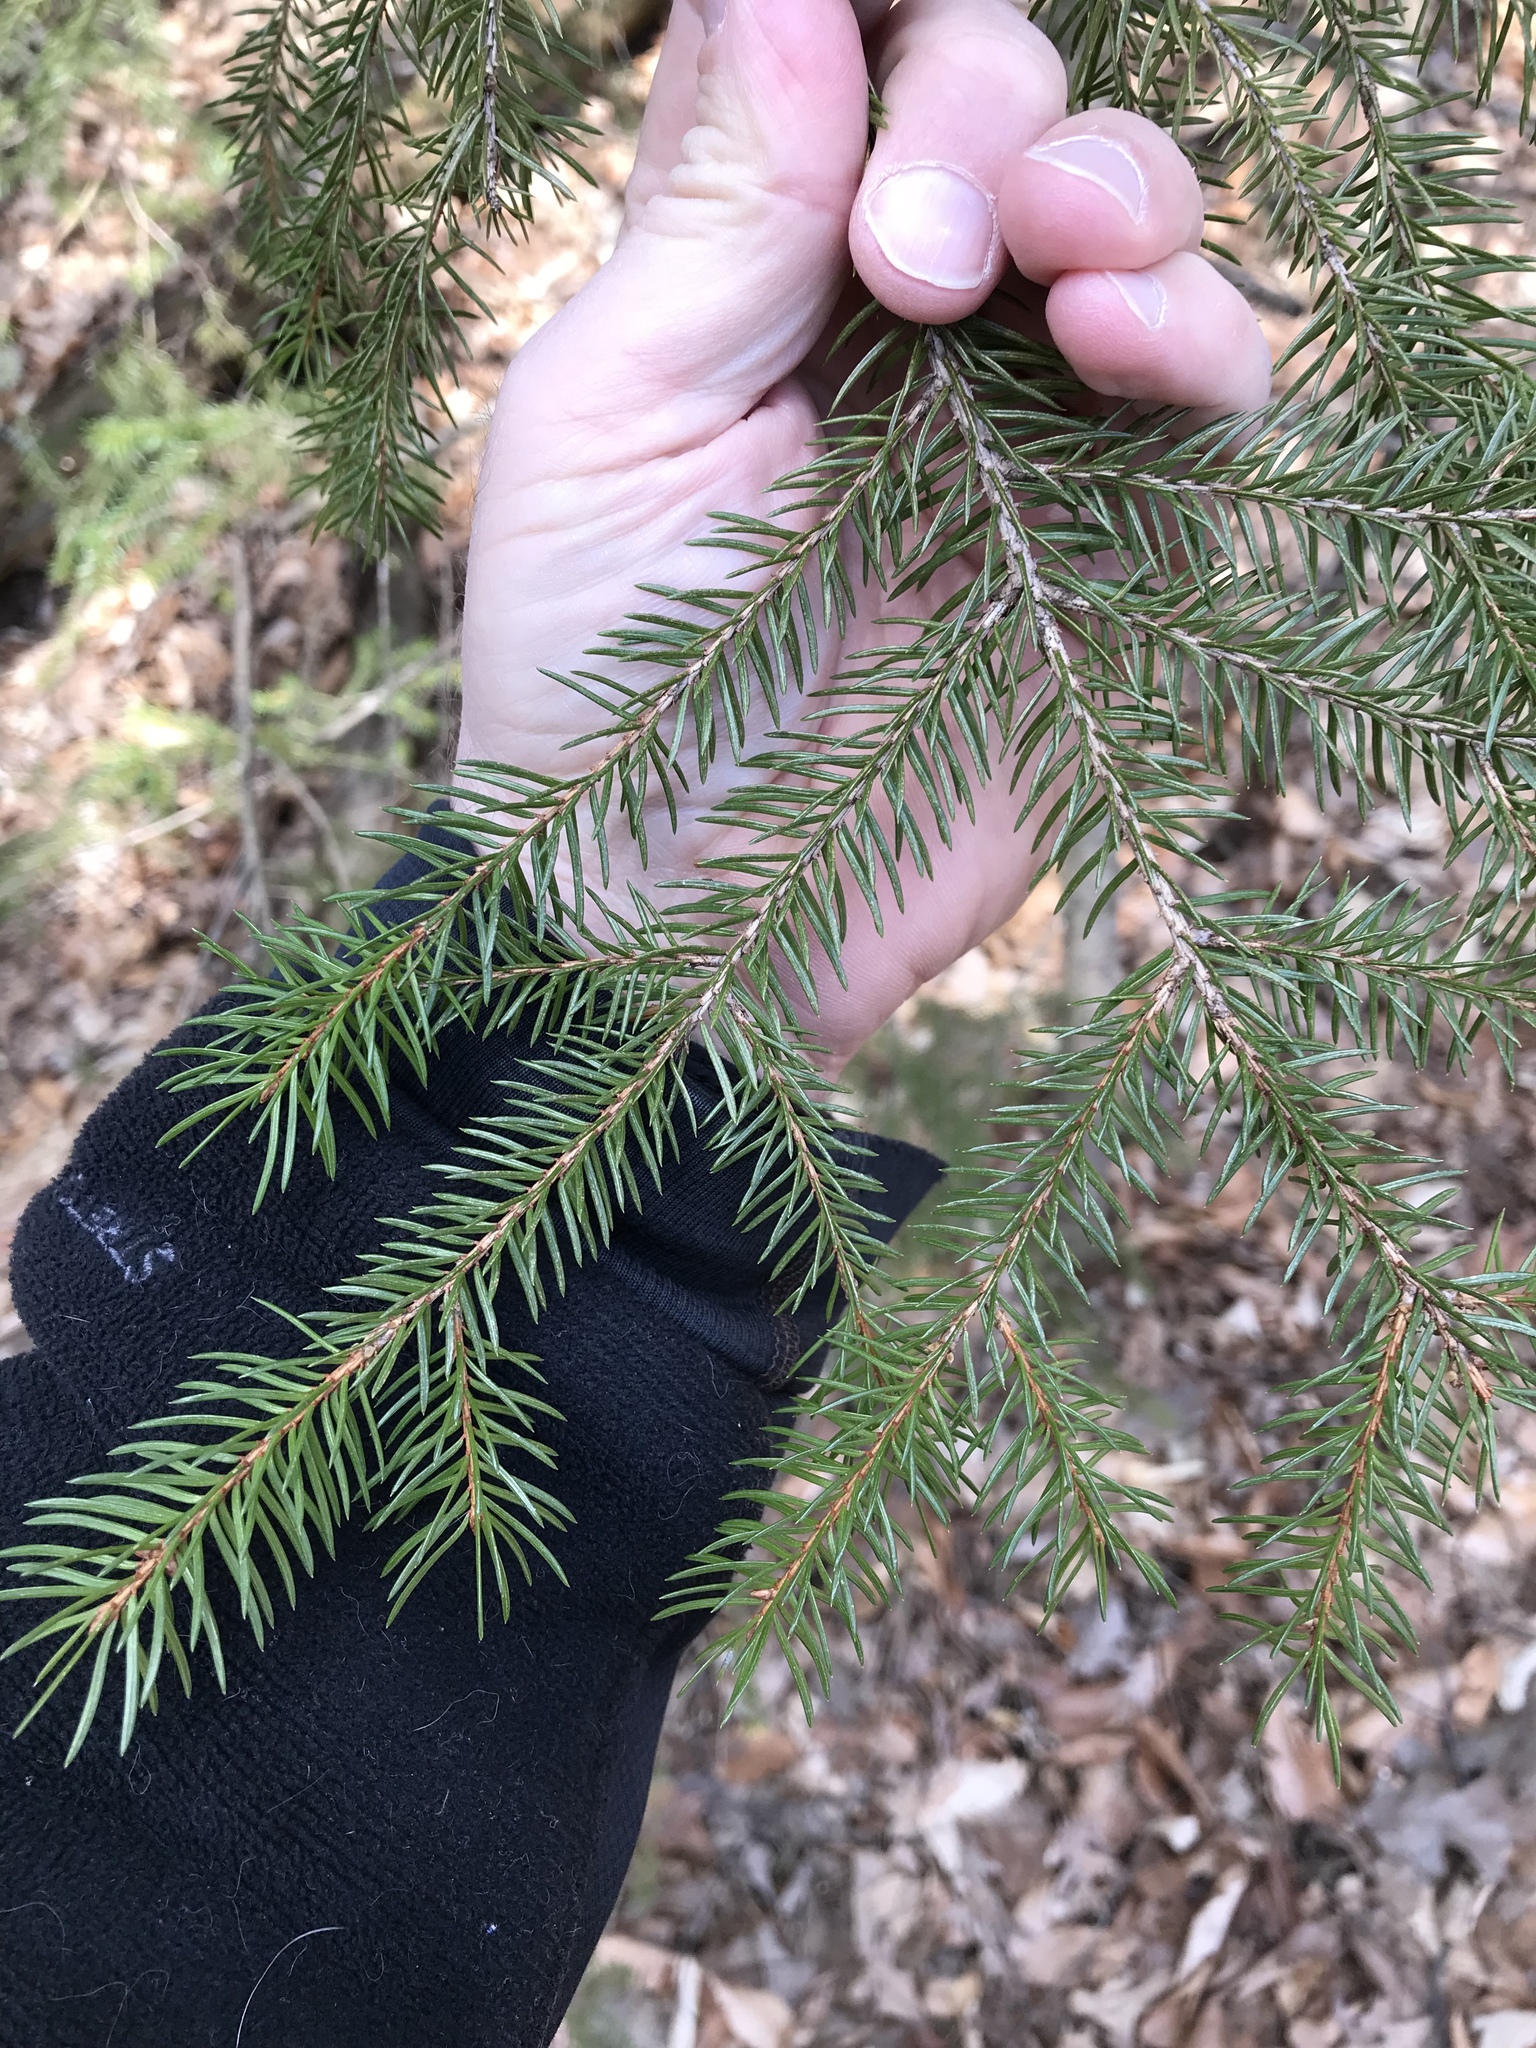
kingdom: Plantae
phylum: Tracheophyta
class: Pinopsida
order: Pinales
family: Pinaceae
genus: Picea
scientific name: Picea rubens
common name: Red spruce
